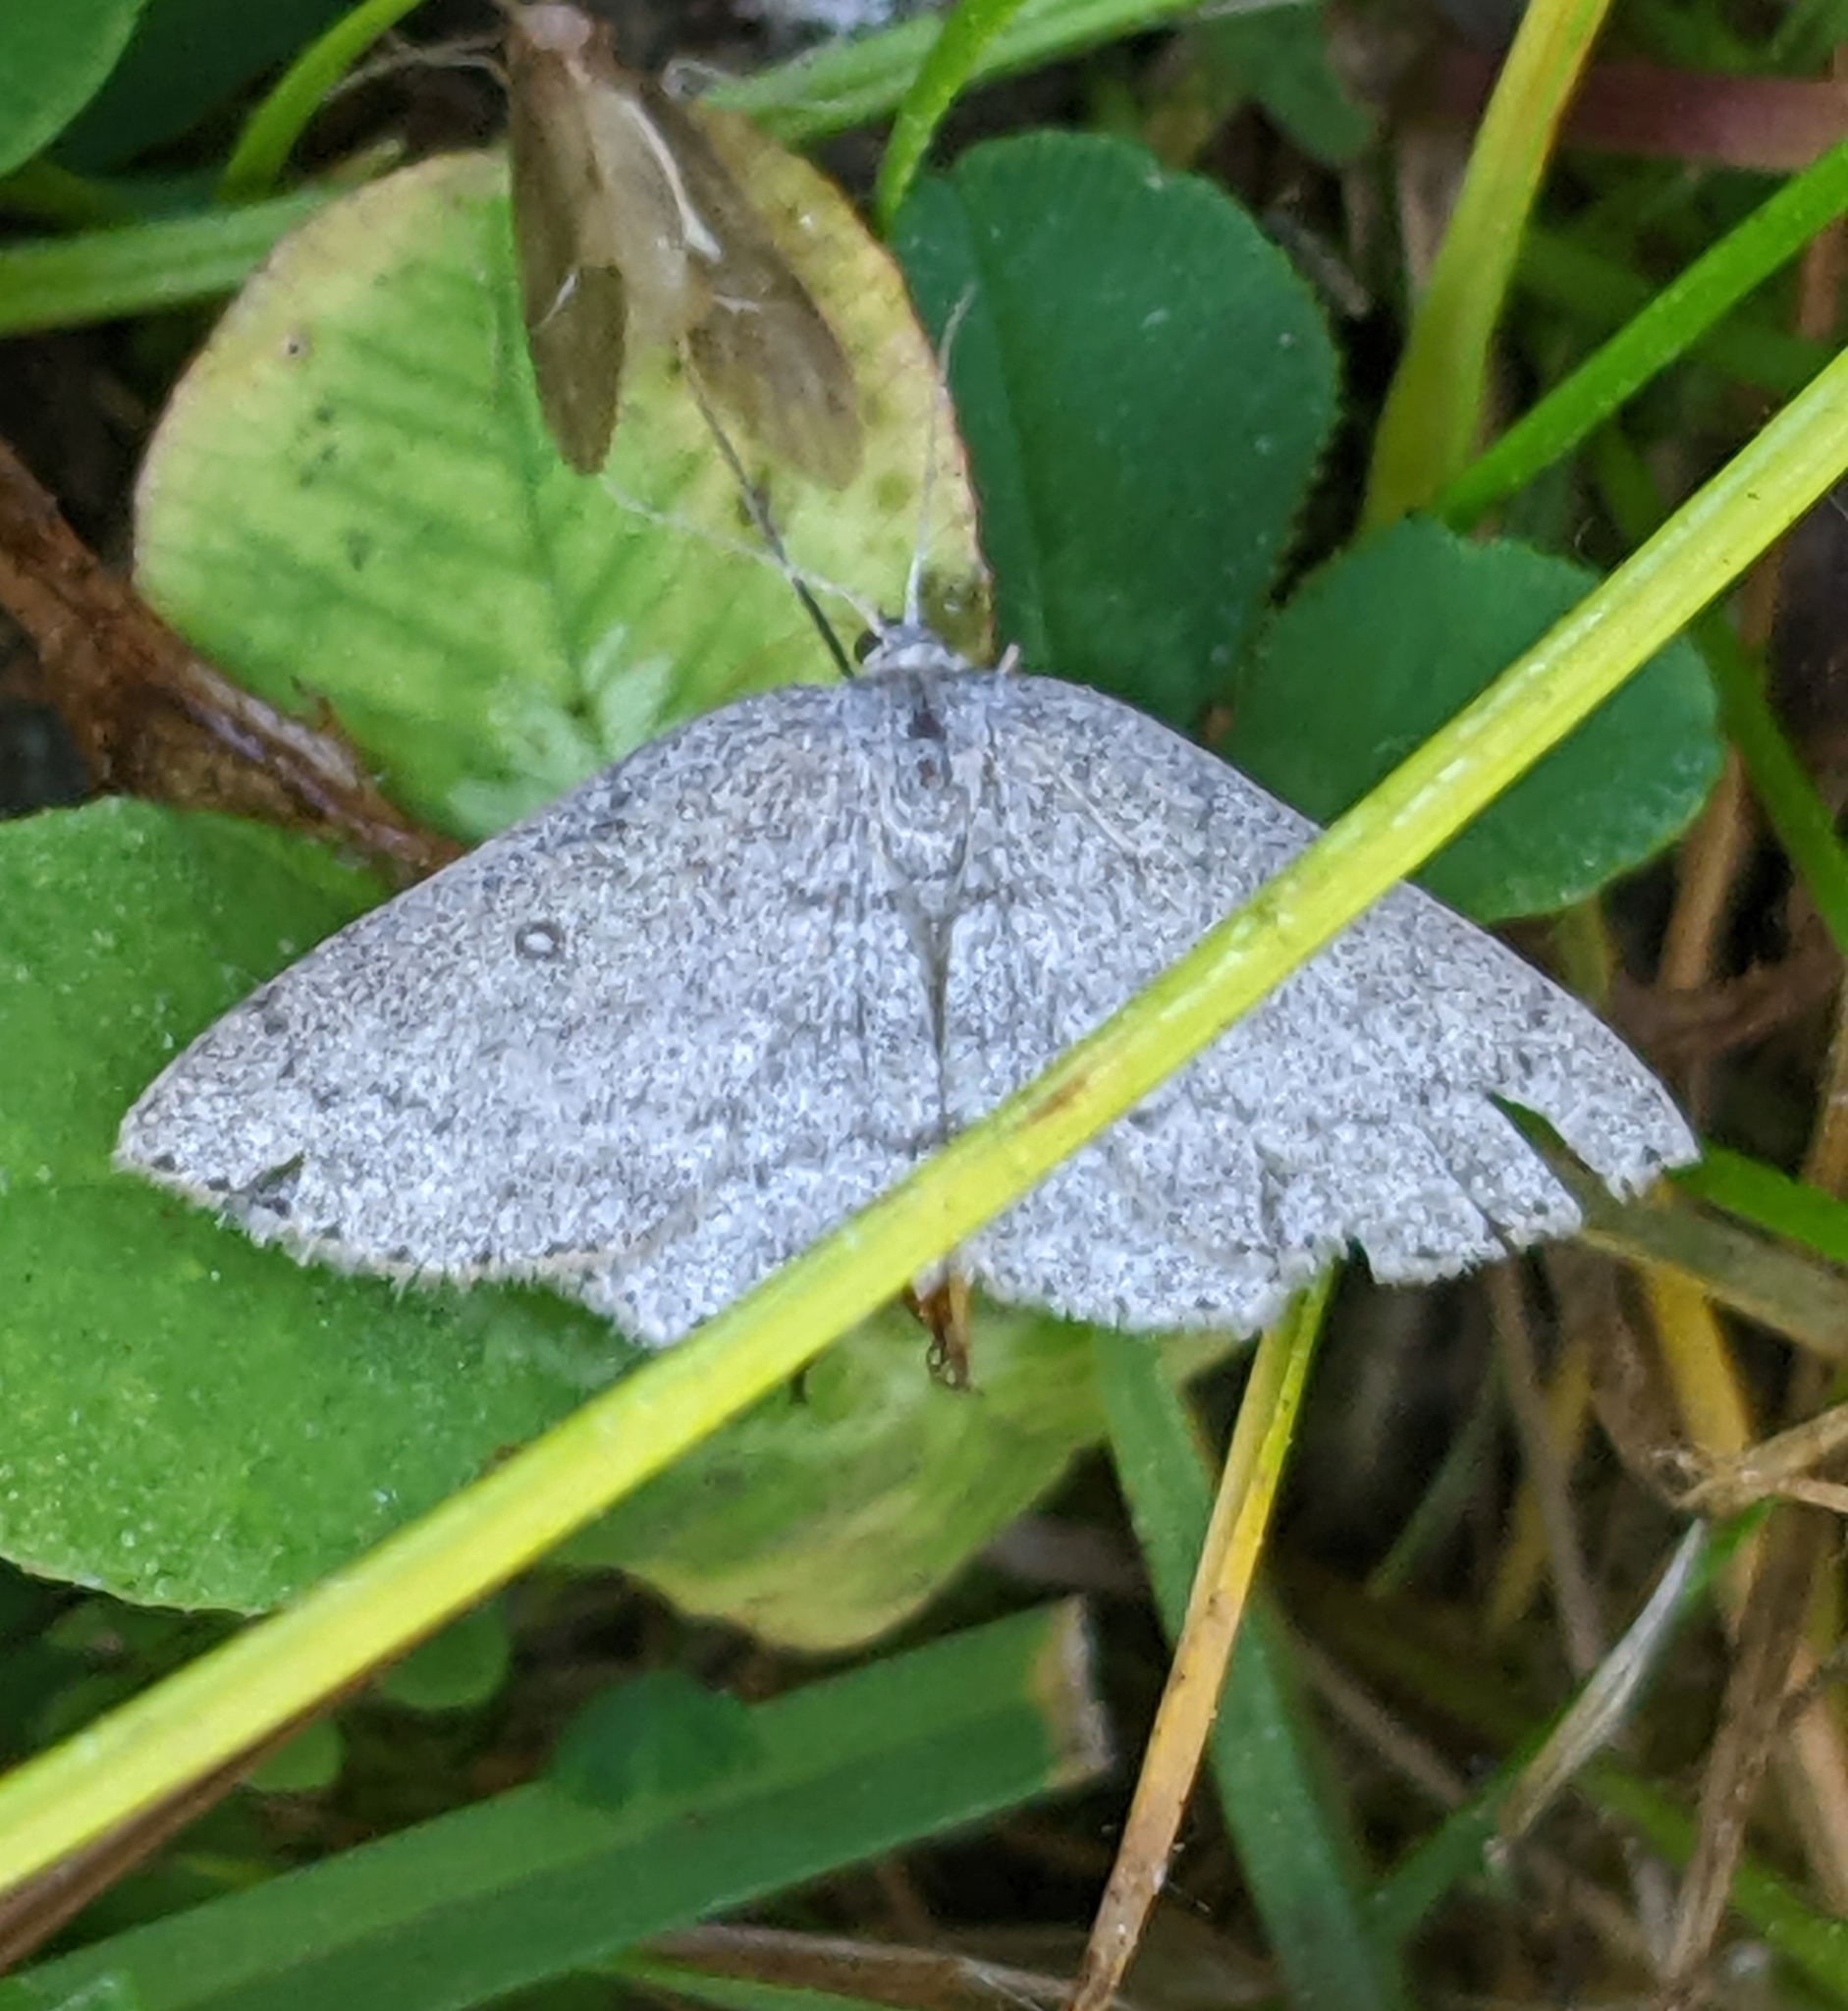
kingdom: Animalia
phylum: Arthropoda
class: Insecta
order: Lepidoptera
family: Geometridae
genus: Cyclophora
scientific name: Cyclophora pendulinaria
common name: Sweet fern geometer
